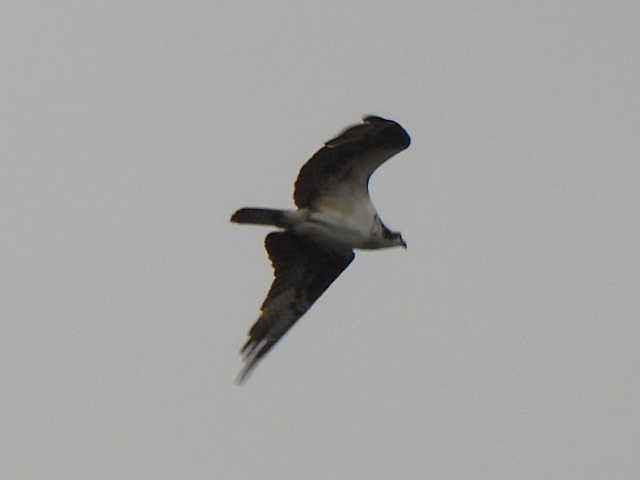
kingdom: Animalia
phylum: Chordata
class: Aves
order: Accipitriformes
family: Pandionidae
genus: Pandion
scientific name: Pandion haliaetus
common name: Osprey
